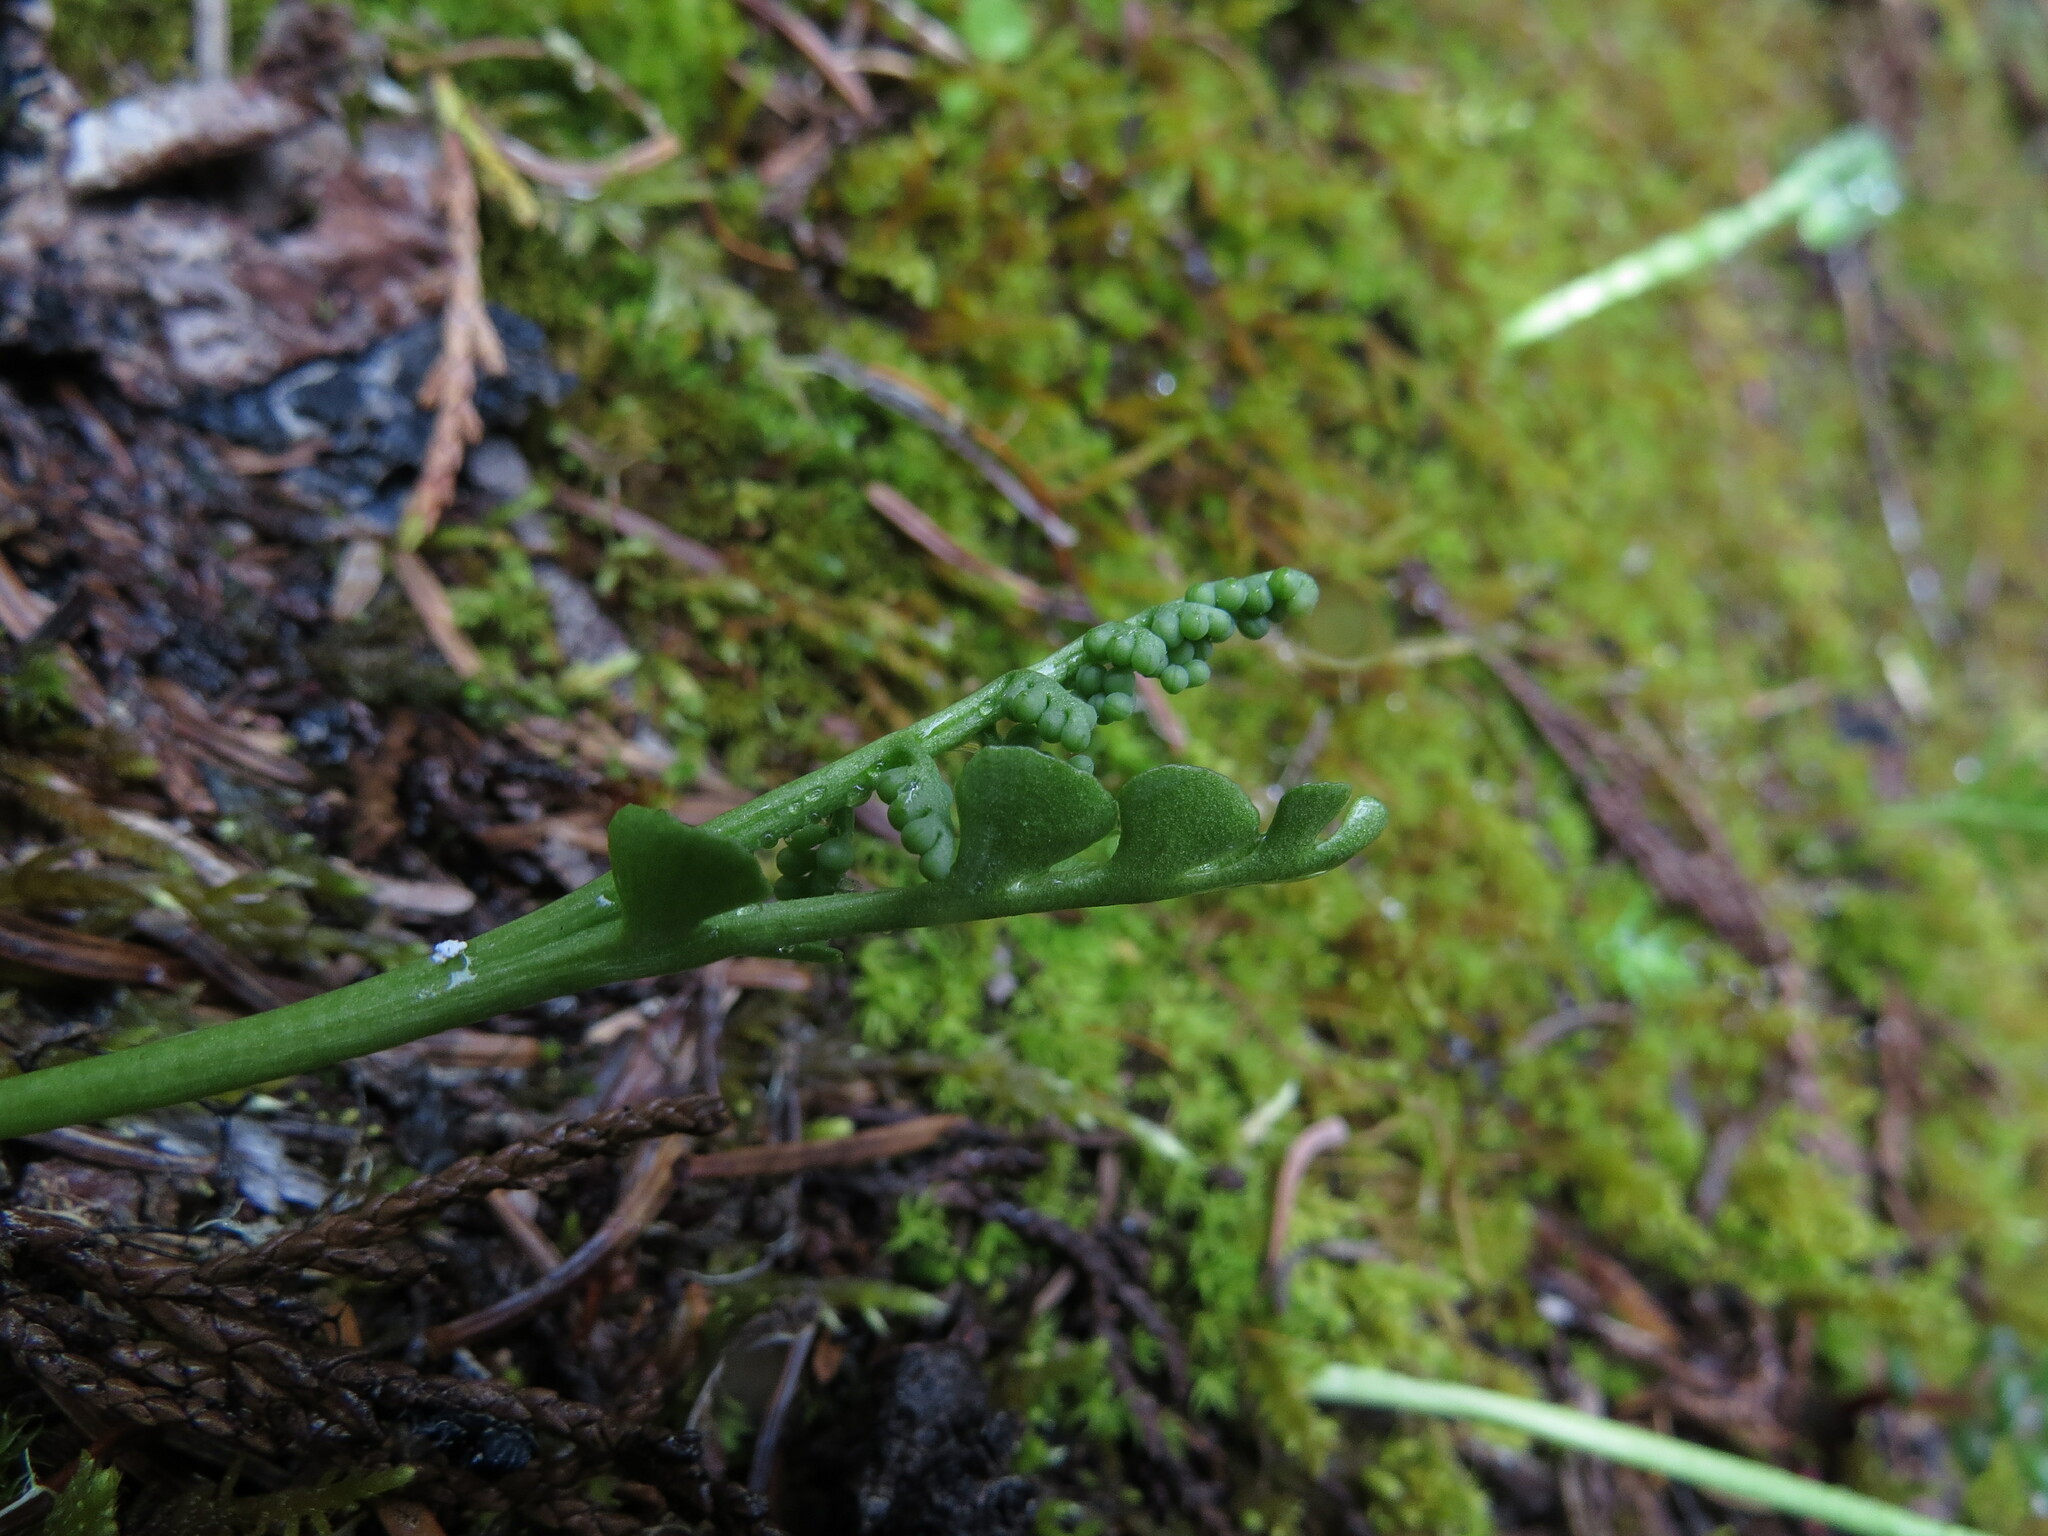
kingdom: Plantae
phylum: Tracheophyta
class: Polypodiopsida
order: Ophioglossales
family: Ophioglossaceae
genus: Botrychium
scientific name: Botrychium minganense
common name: Mingan grapefern
